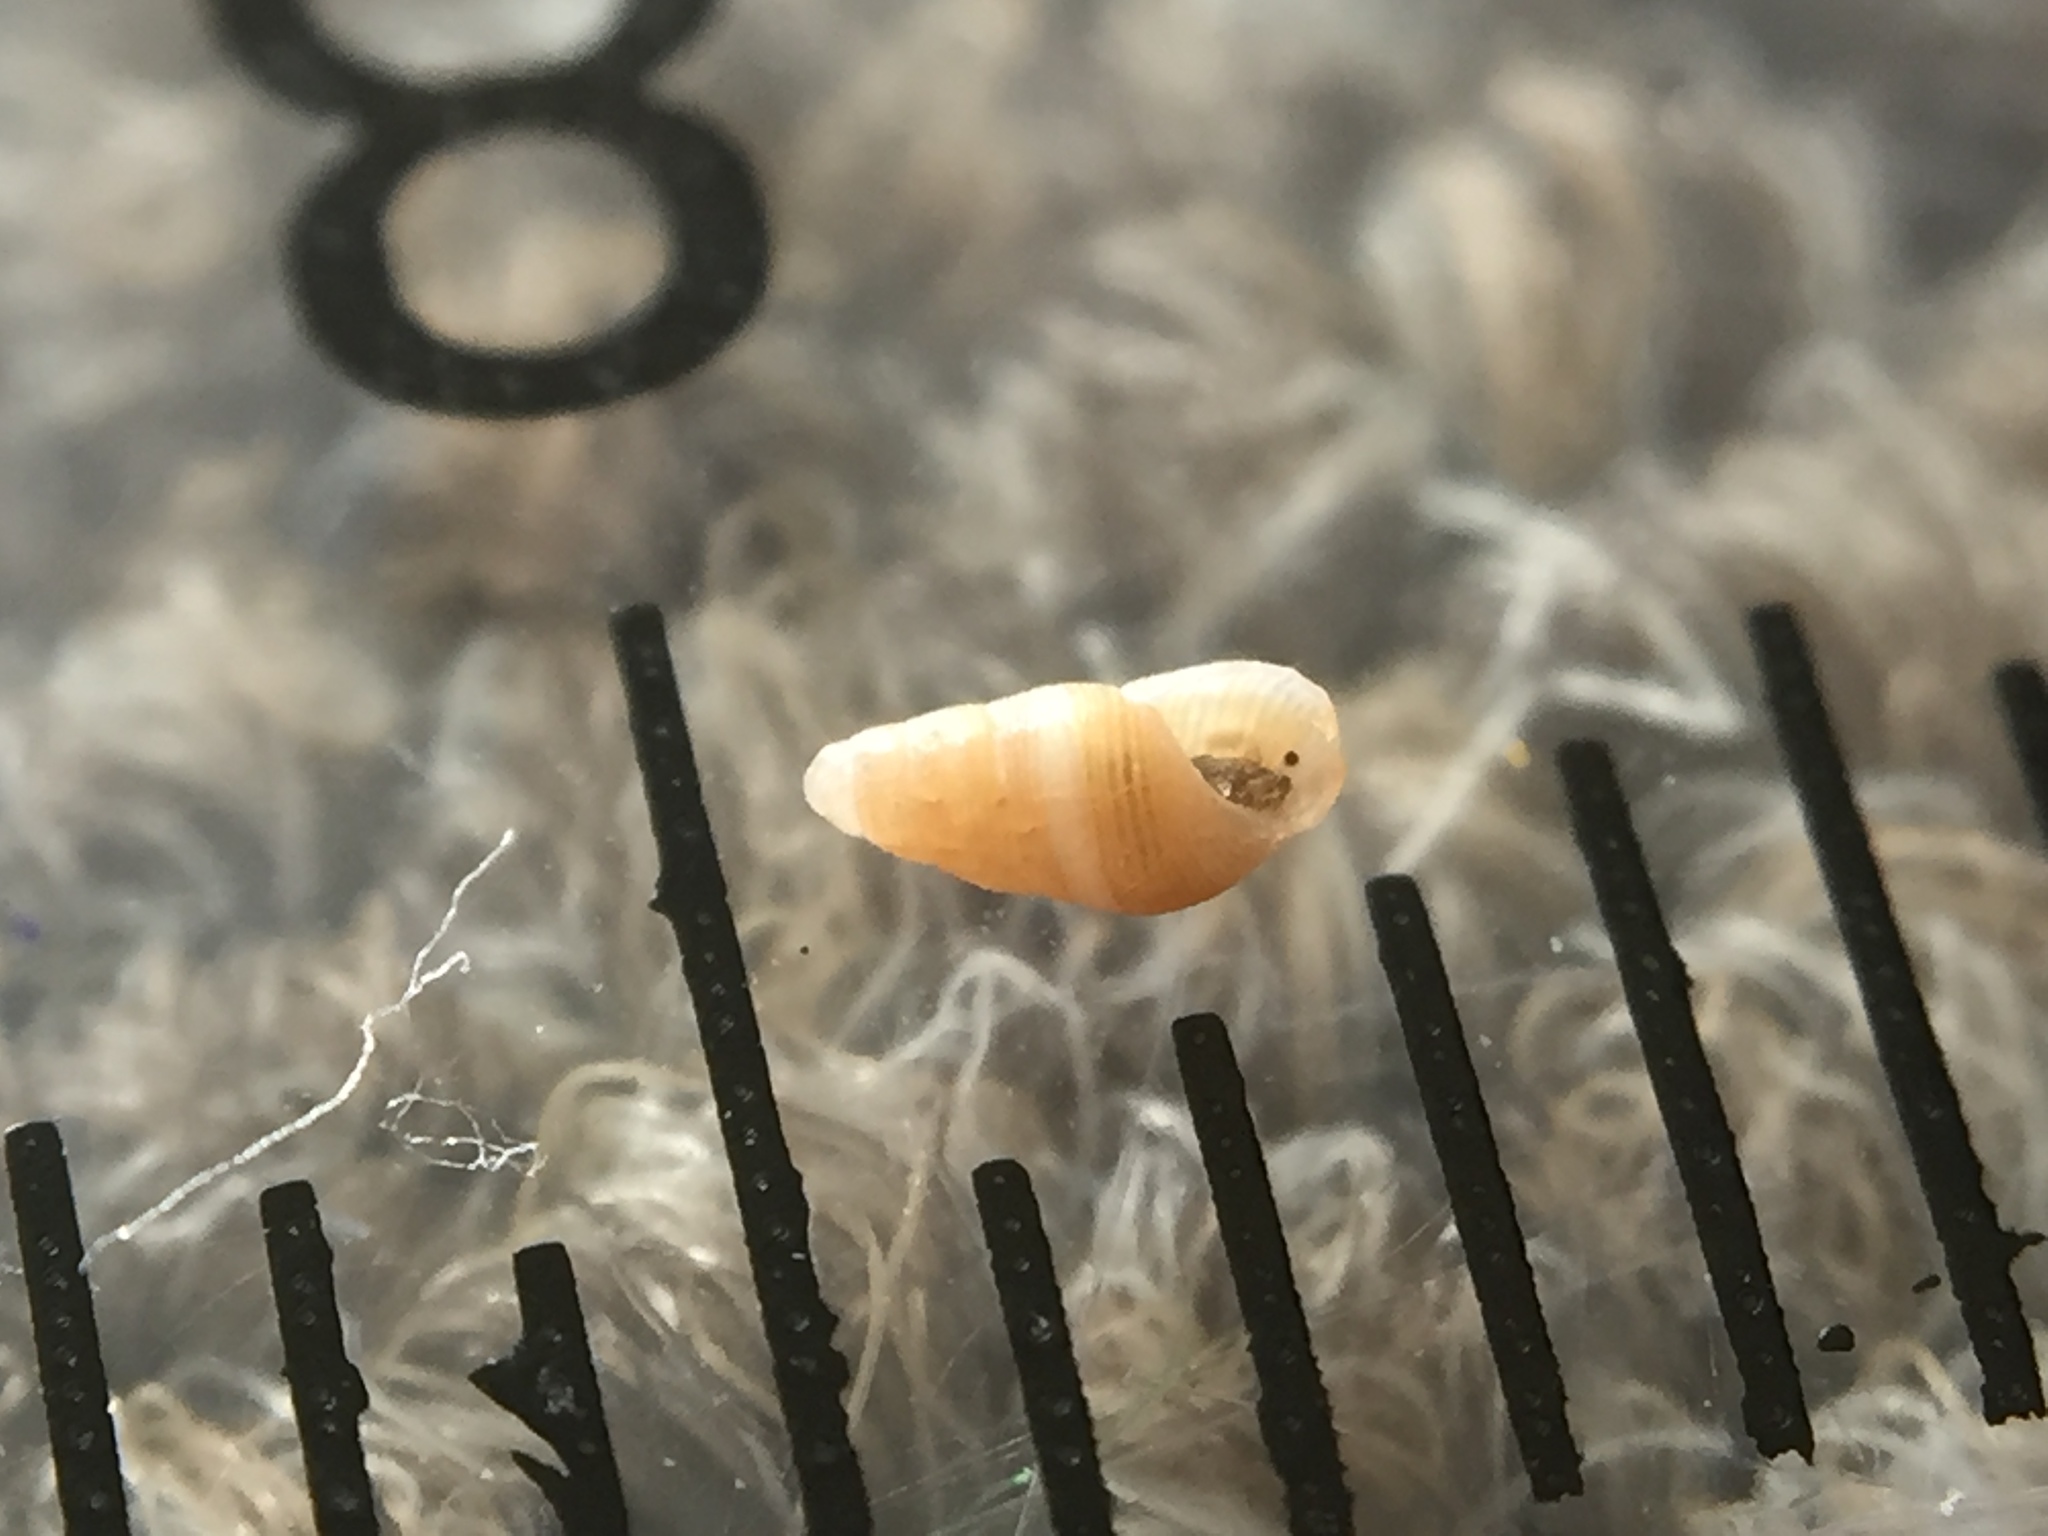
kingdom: Animalia
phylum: Mollusca
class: Gastropoda
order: Littorinimorpha
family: Barleeiidae
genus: Fictonoba
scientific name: Fictonoba carnosa
